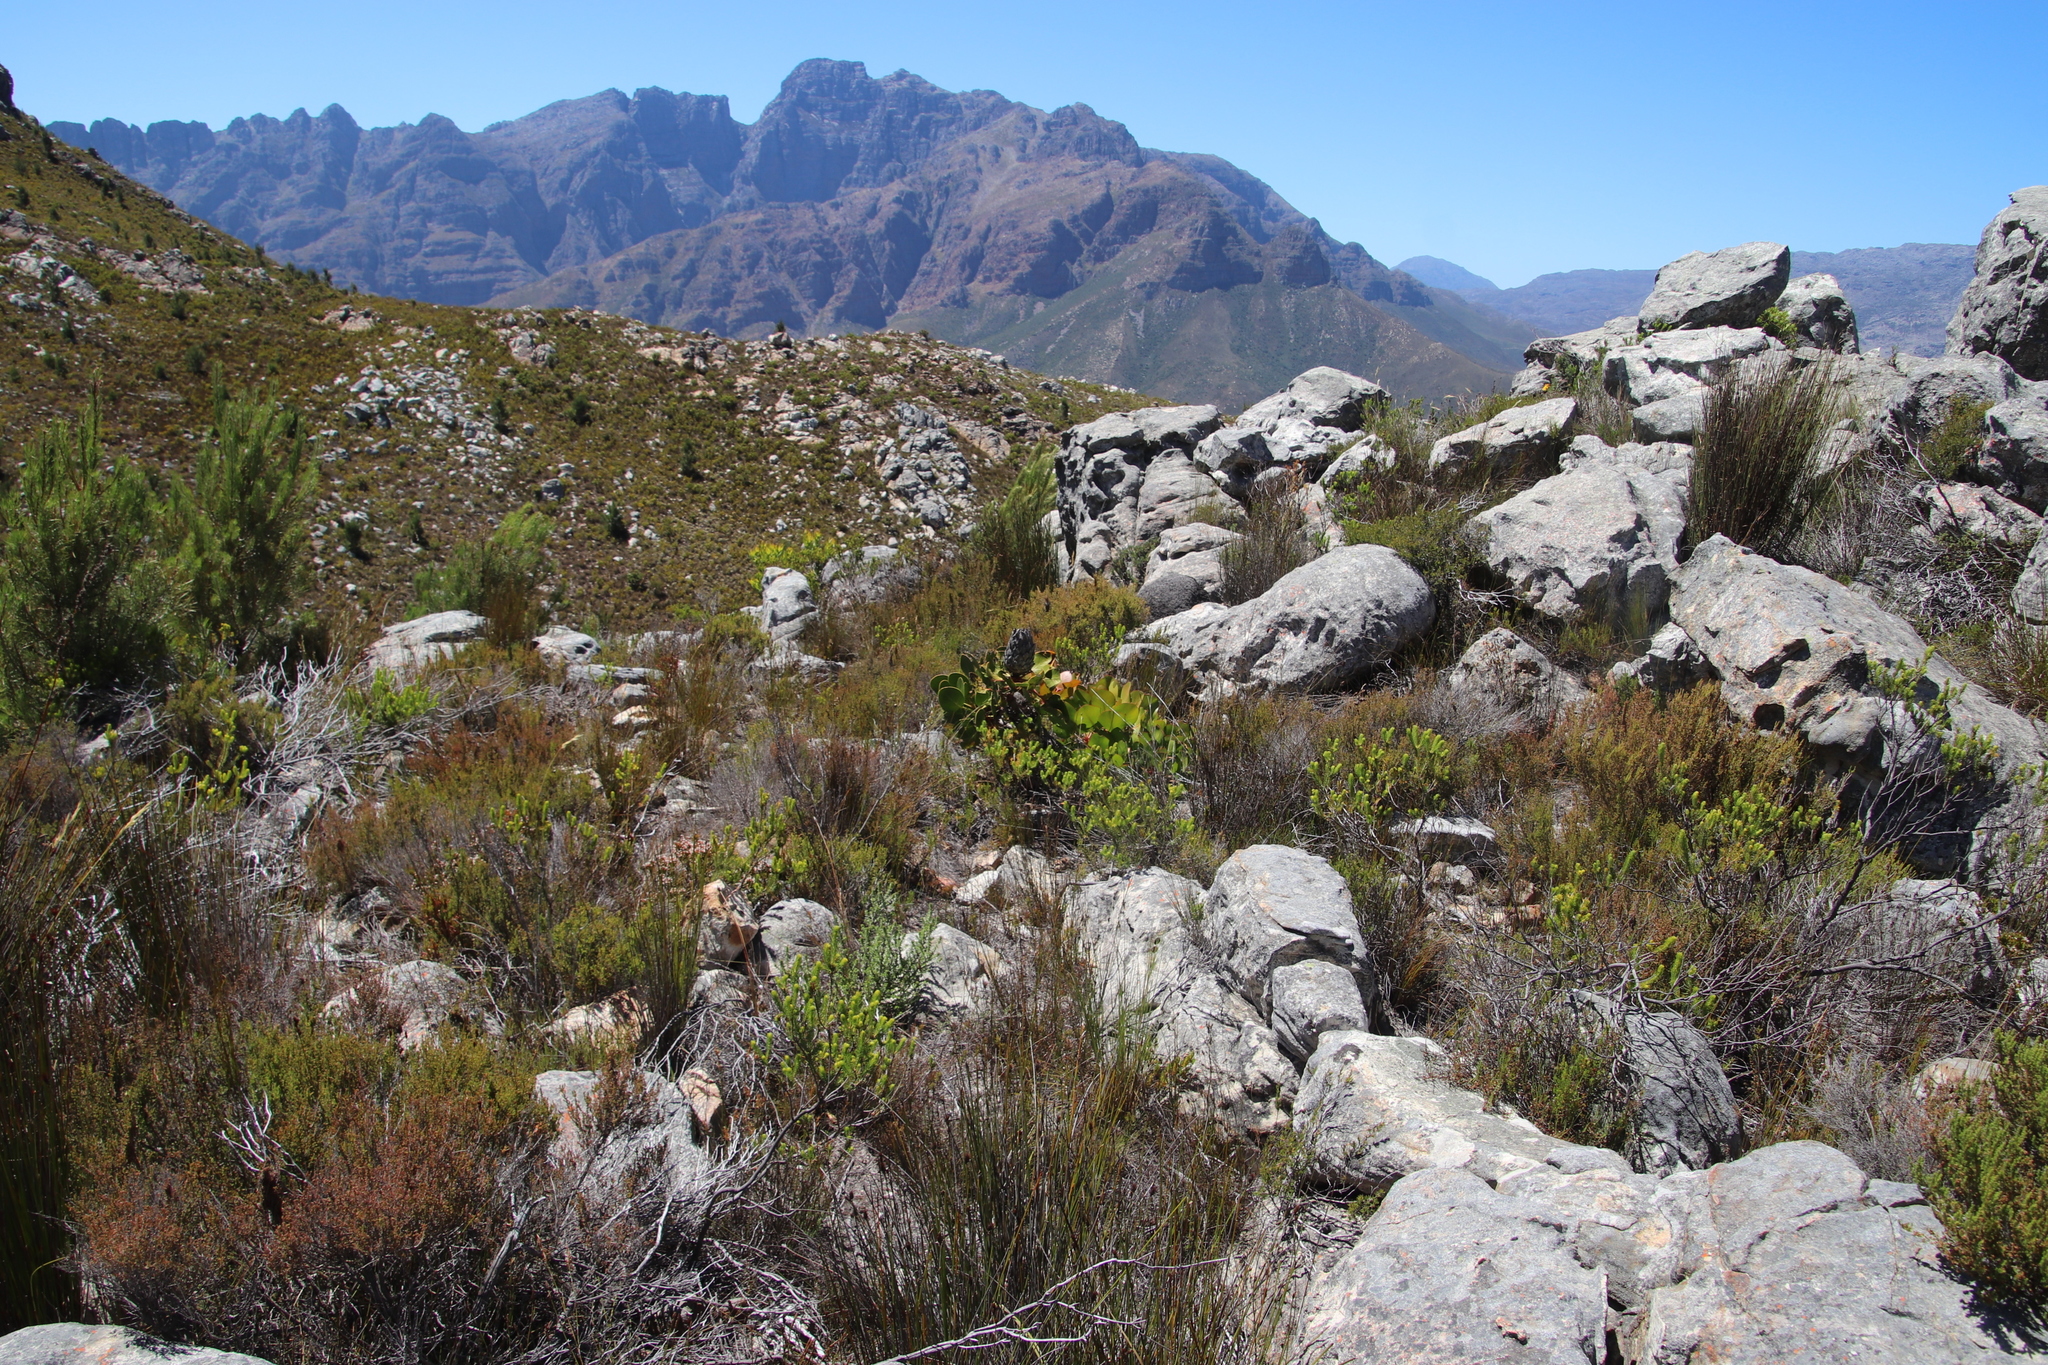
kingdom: Plantae
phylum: Tracheophyta
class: Magnoliopsida
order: Proteales
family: Proteaceae
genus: Protea
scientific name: Protea cynaroides
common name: King protea
